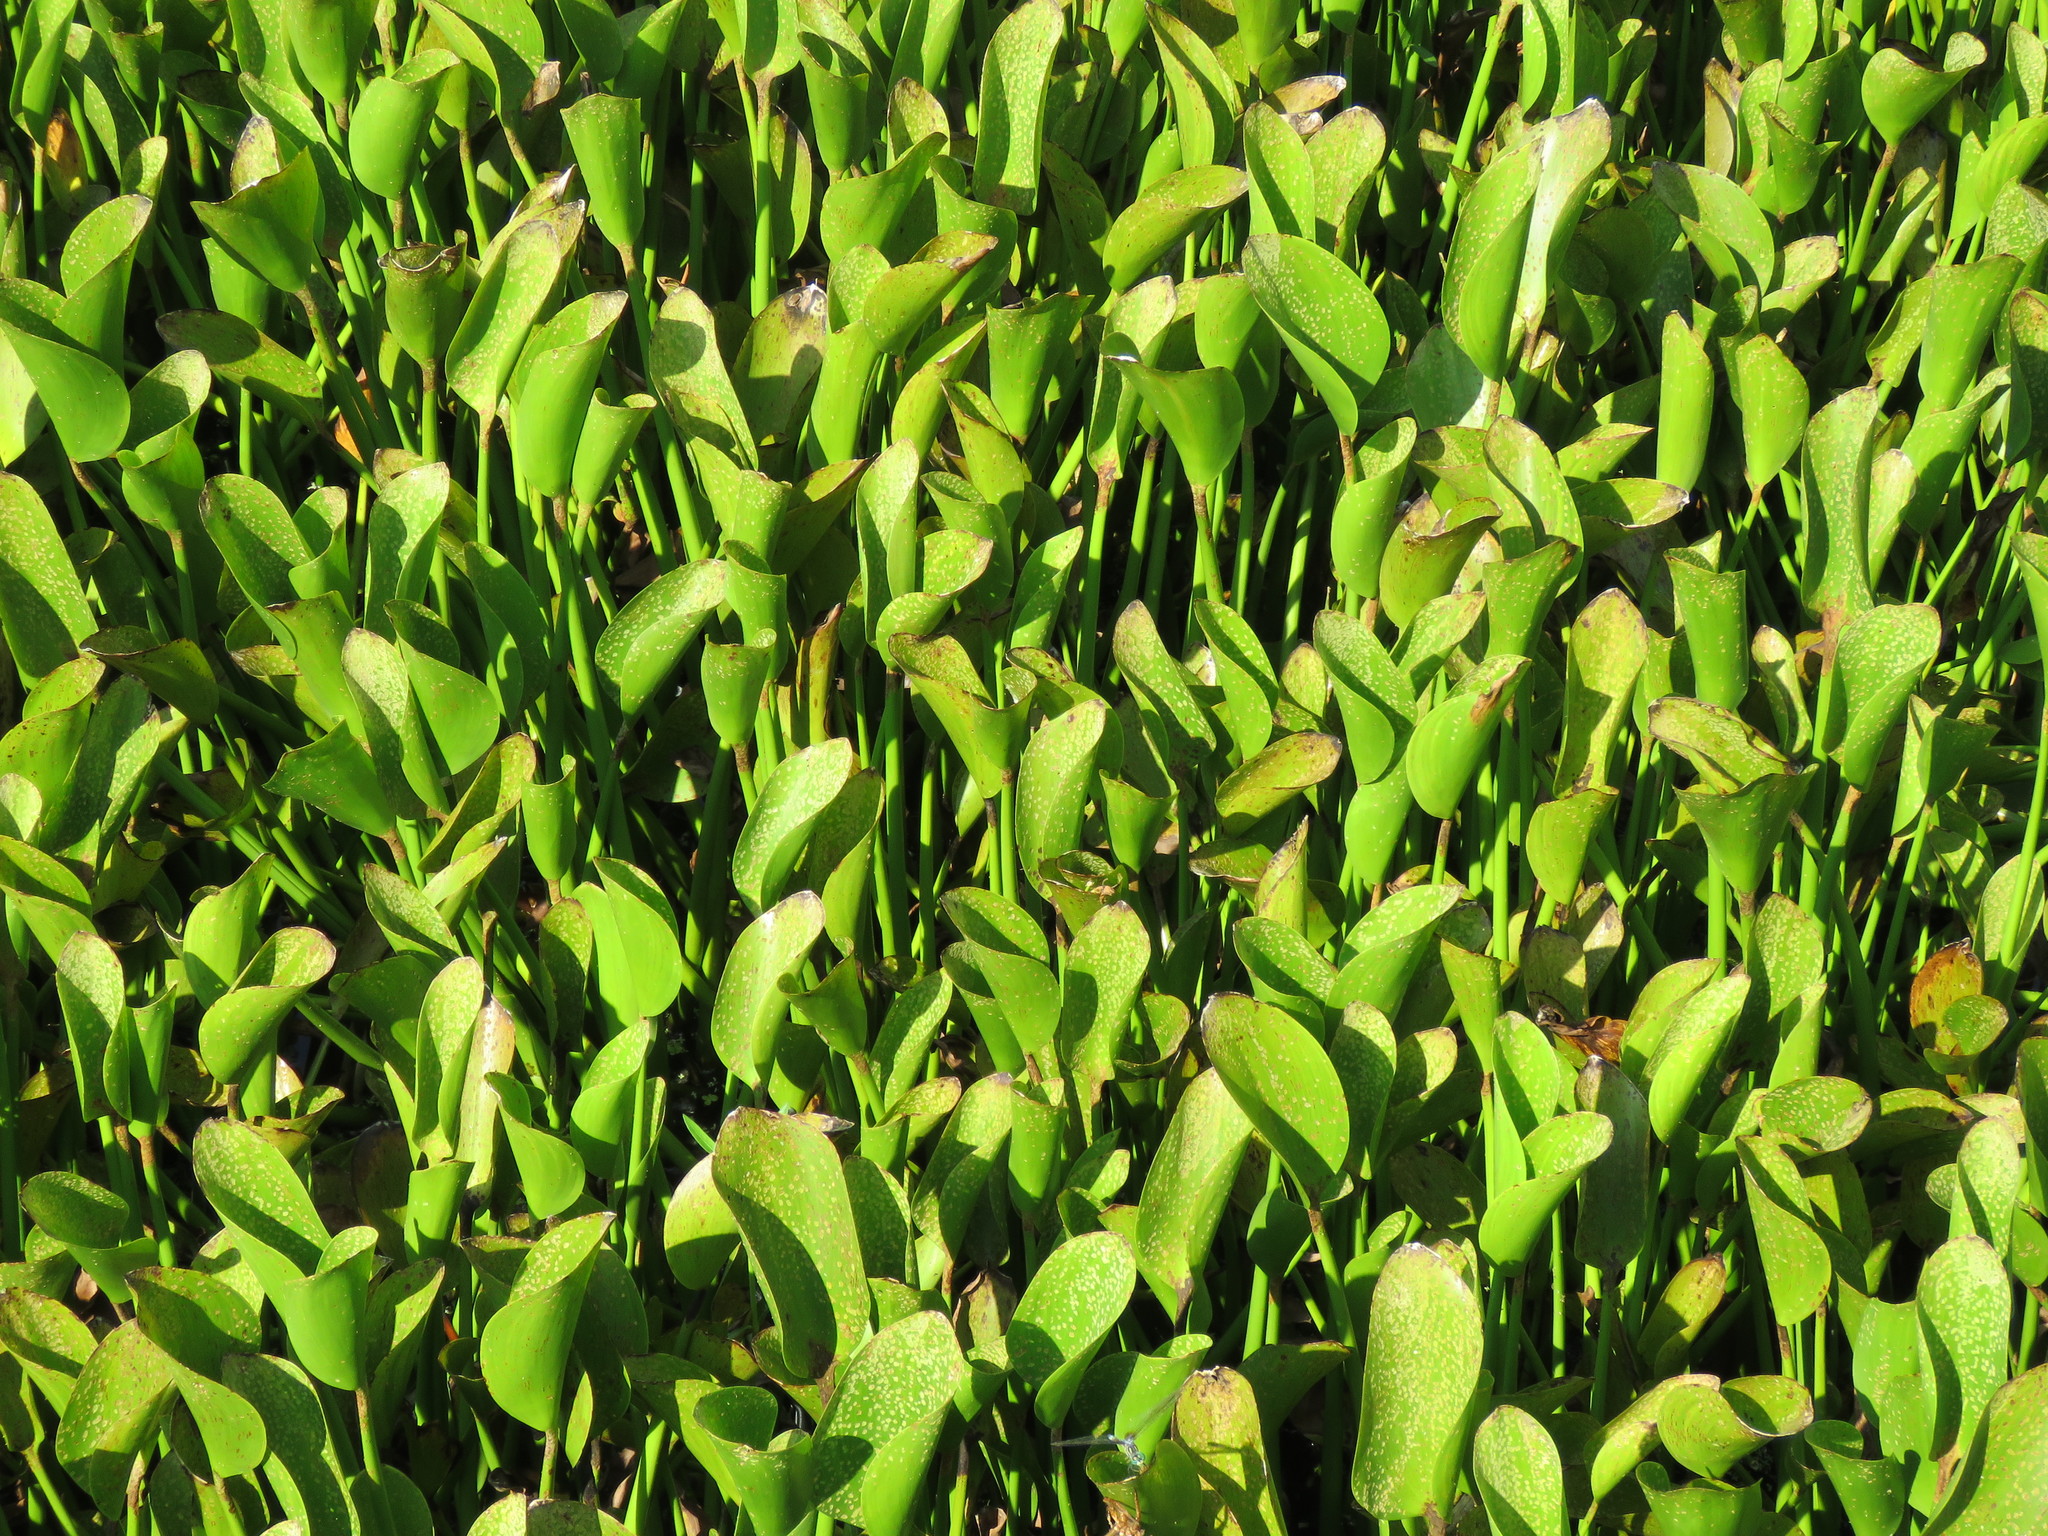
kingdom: Plantae
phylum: Tracheophyta
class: Liliopsida
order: Commelinales
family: Pontederiaceae
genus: Pontederia
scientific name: Pontederia crassipes
